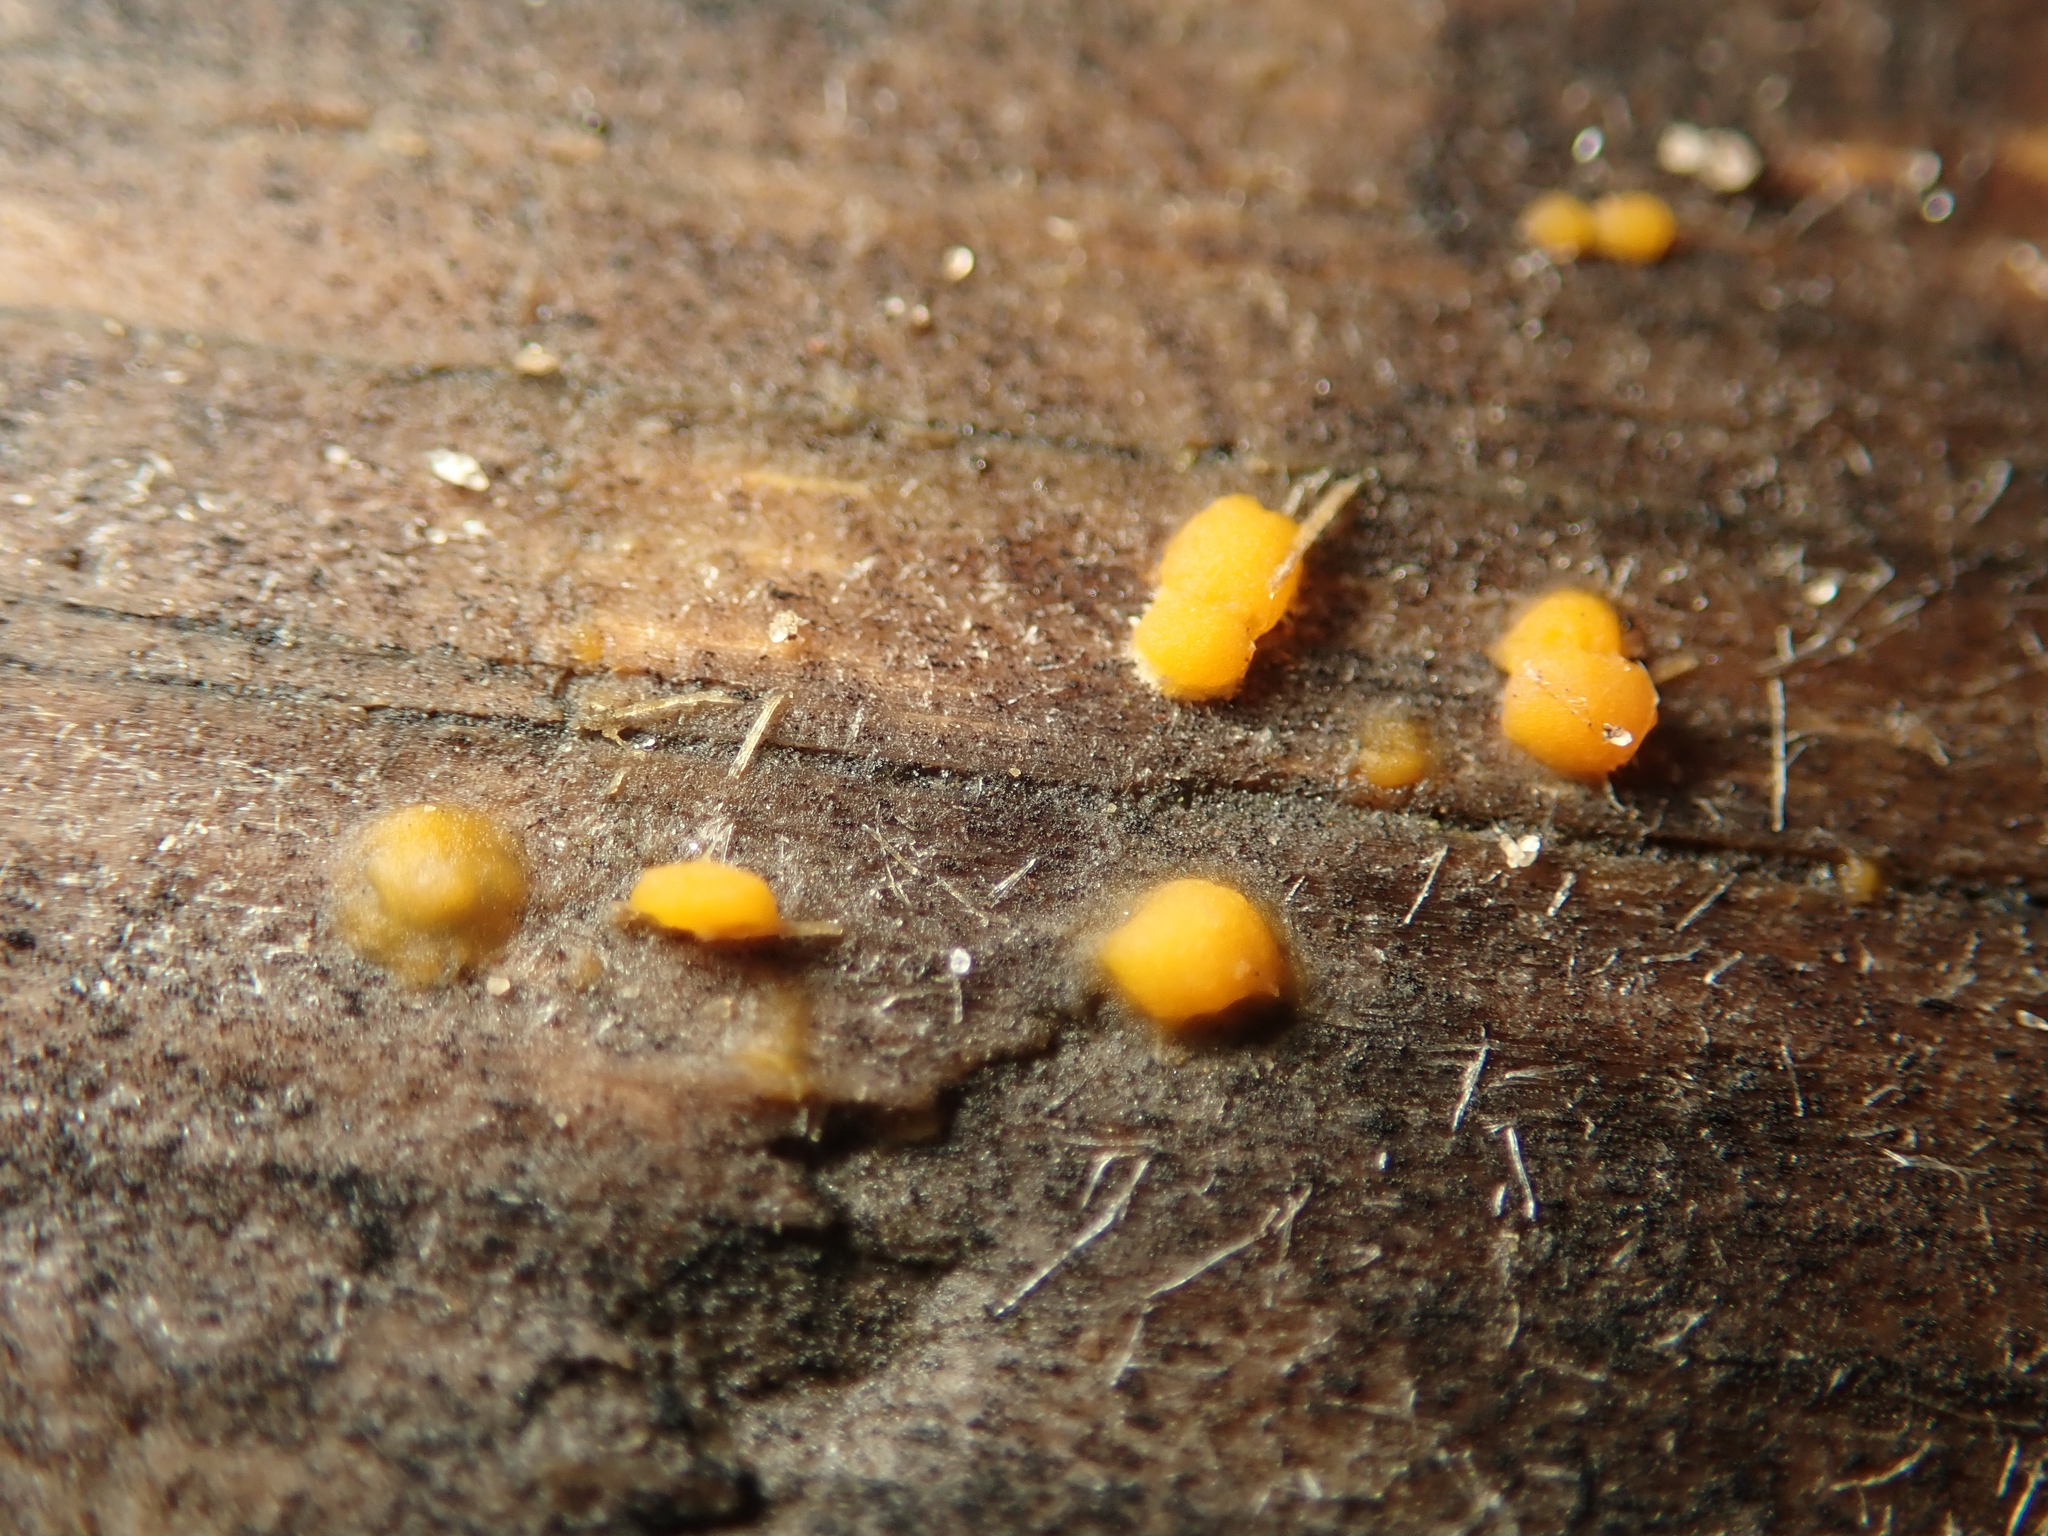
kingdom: Fungi
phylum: Basidiomycota
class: Dacrymycetes
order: Dacrymycetales
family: Dacrymycetaceae
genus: Dacrymyces
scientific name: Dacrymyces stillatus
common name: Common jelly spot
